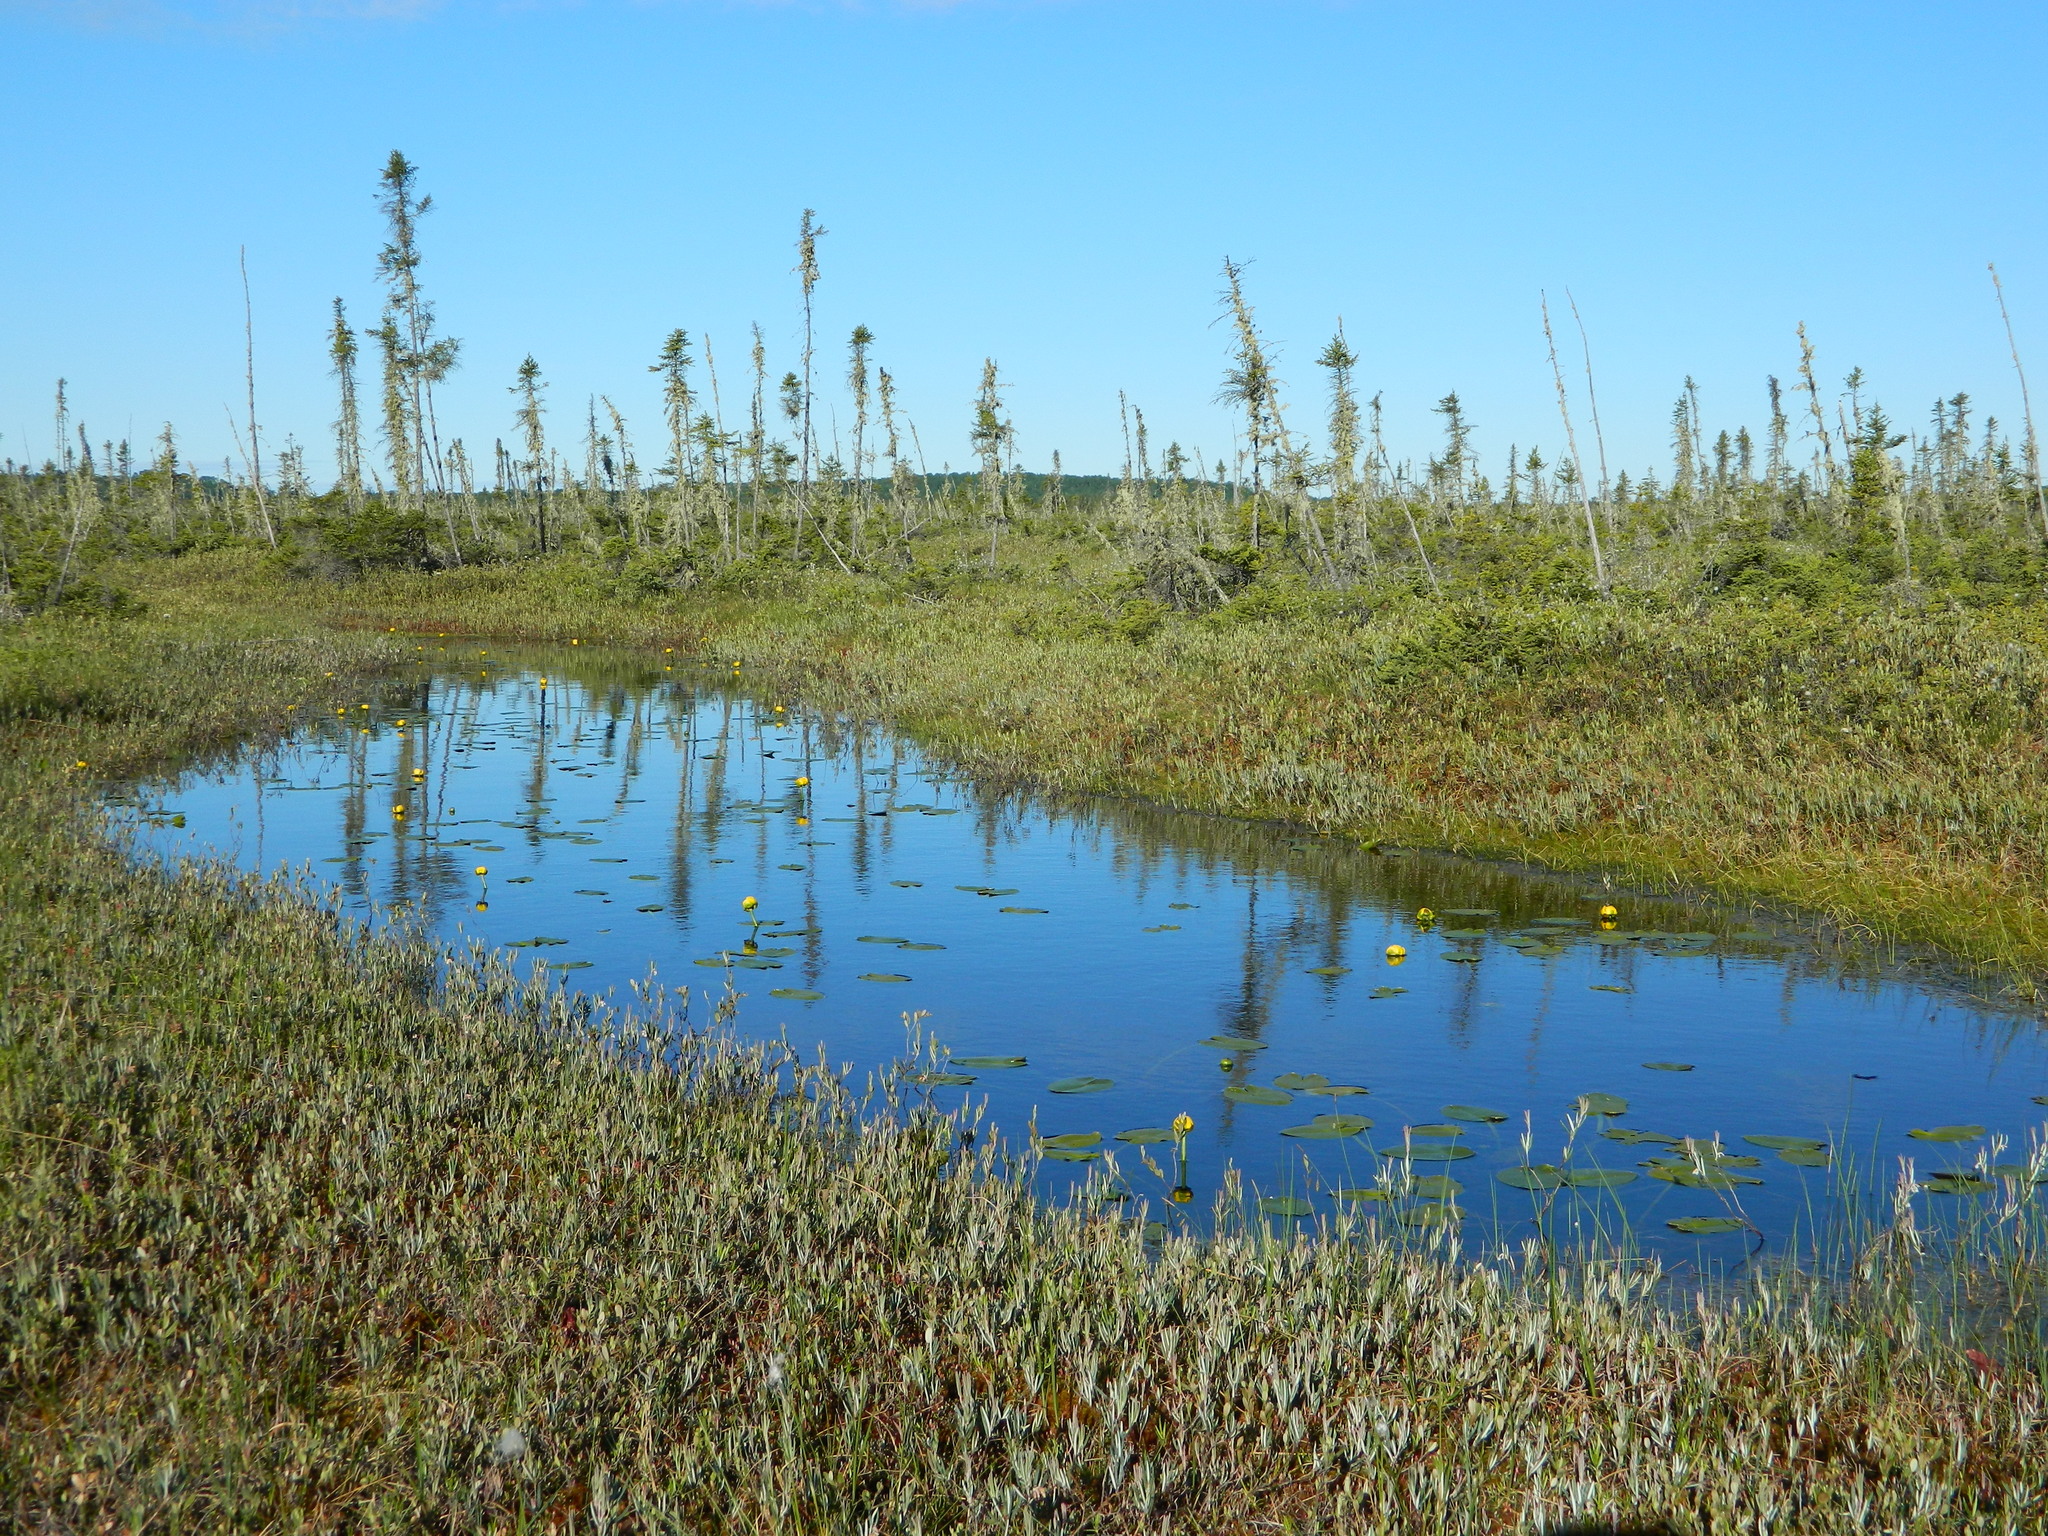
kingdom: Plantae
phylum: Tracheophyta
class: Magnoliopsida
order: Nymphaeales
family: Nymphaeaceae
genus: Nuphar
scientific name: Nuphar variegata
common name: Beaver-root
